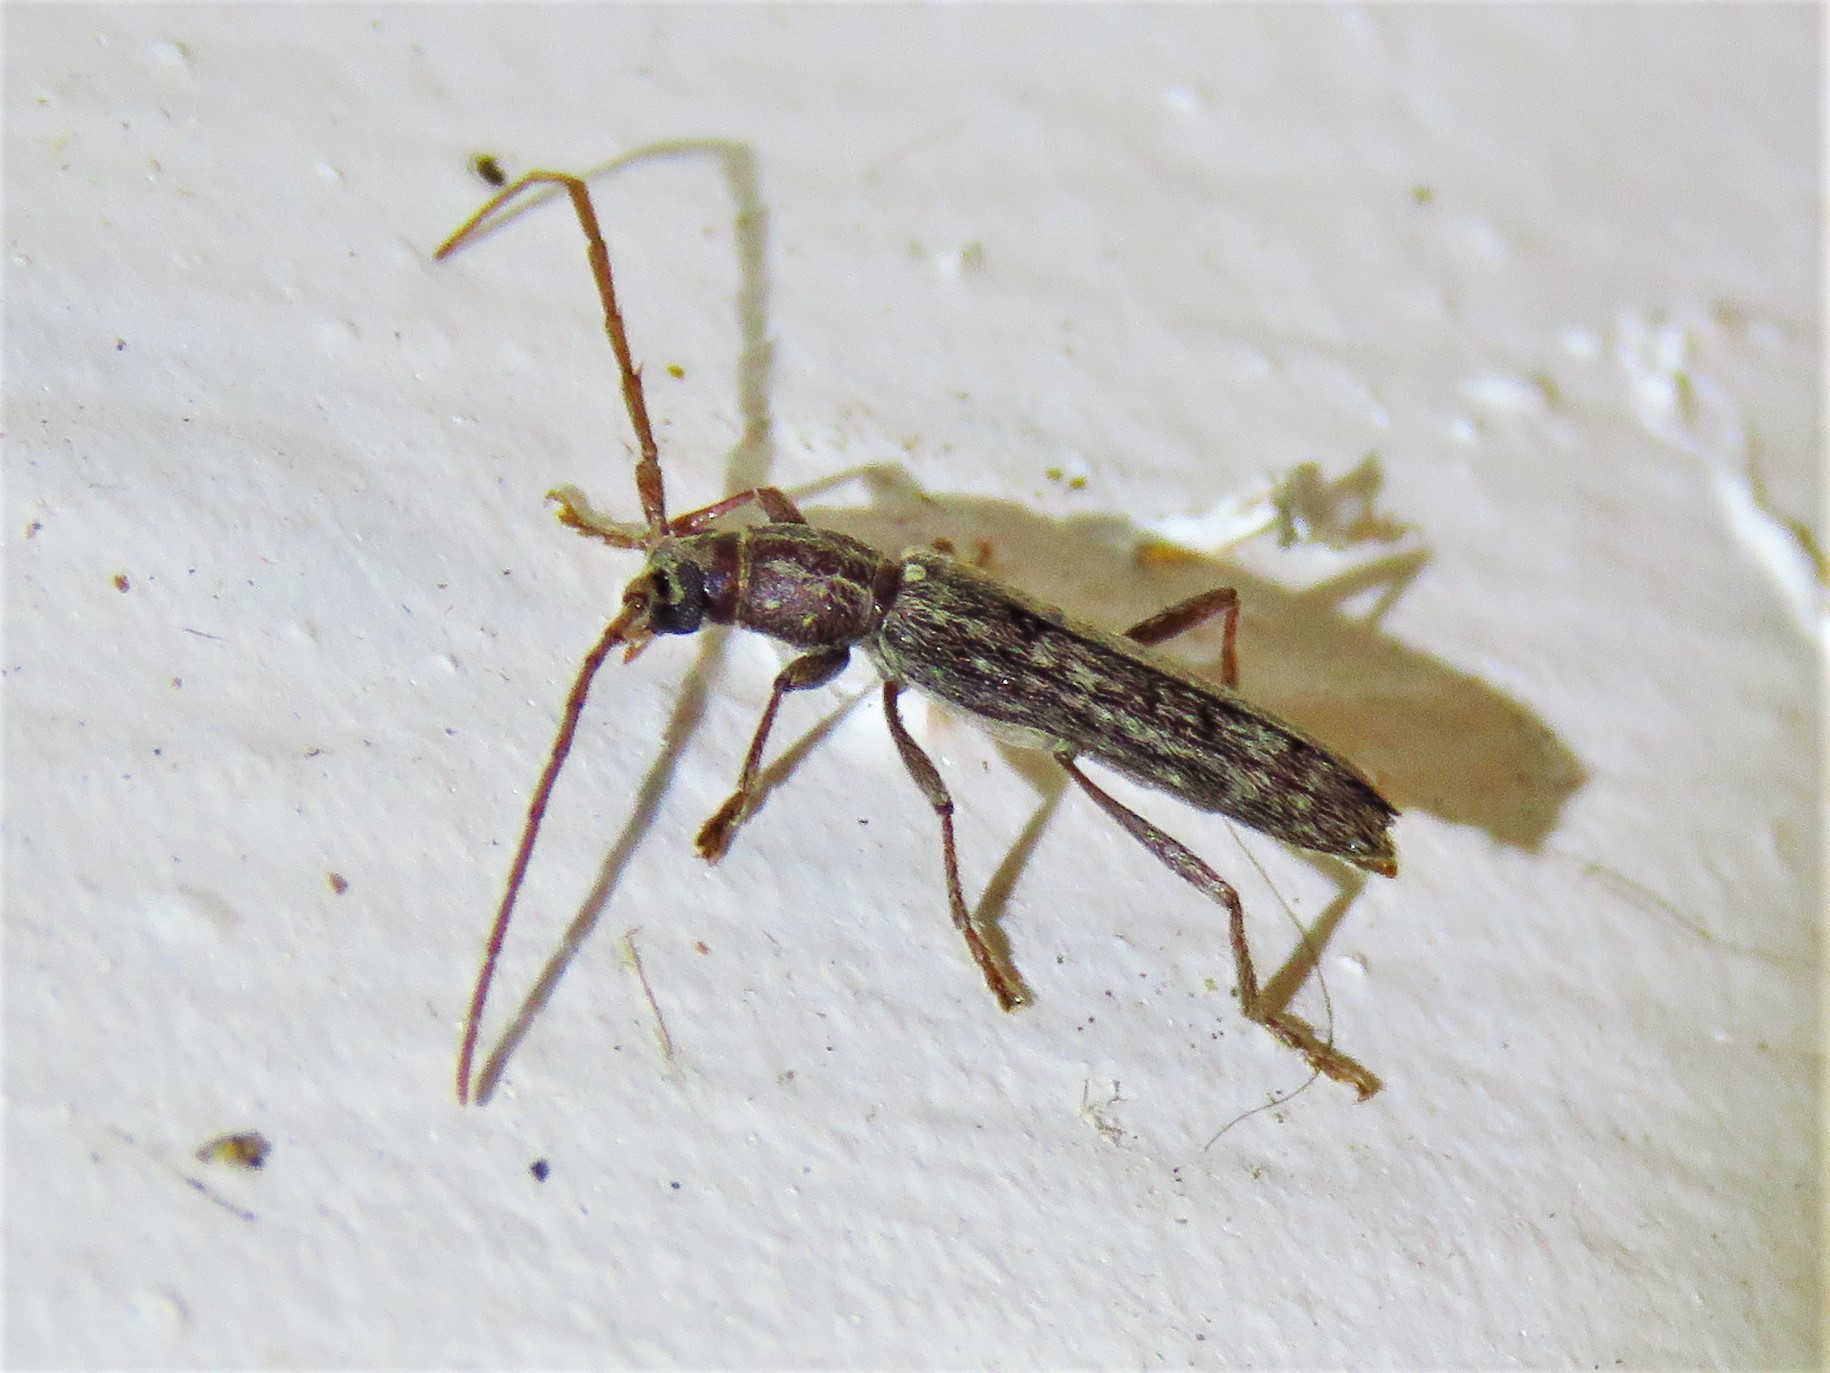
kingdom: Animalia
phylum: Arthropoda
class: Insecta
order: Coleoptera
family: Cerambycidae
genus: Anelaphus
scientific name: Anelaphus villosus
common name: Twig pruner
